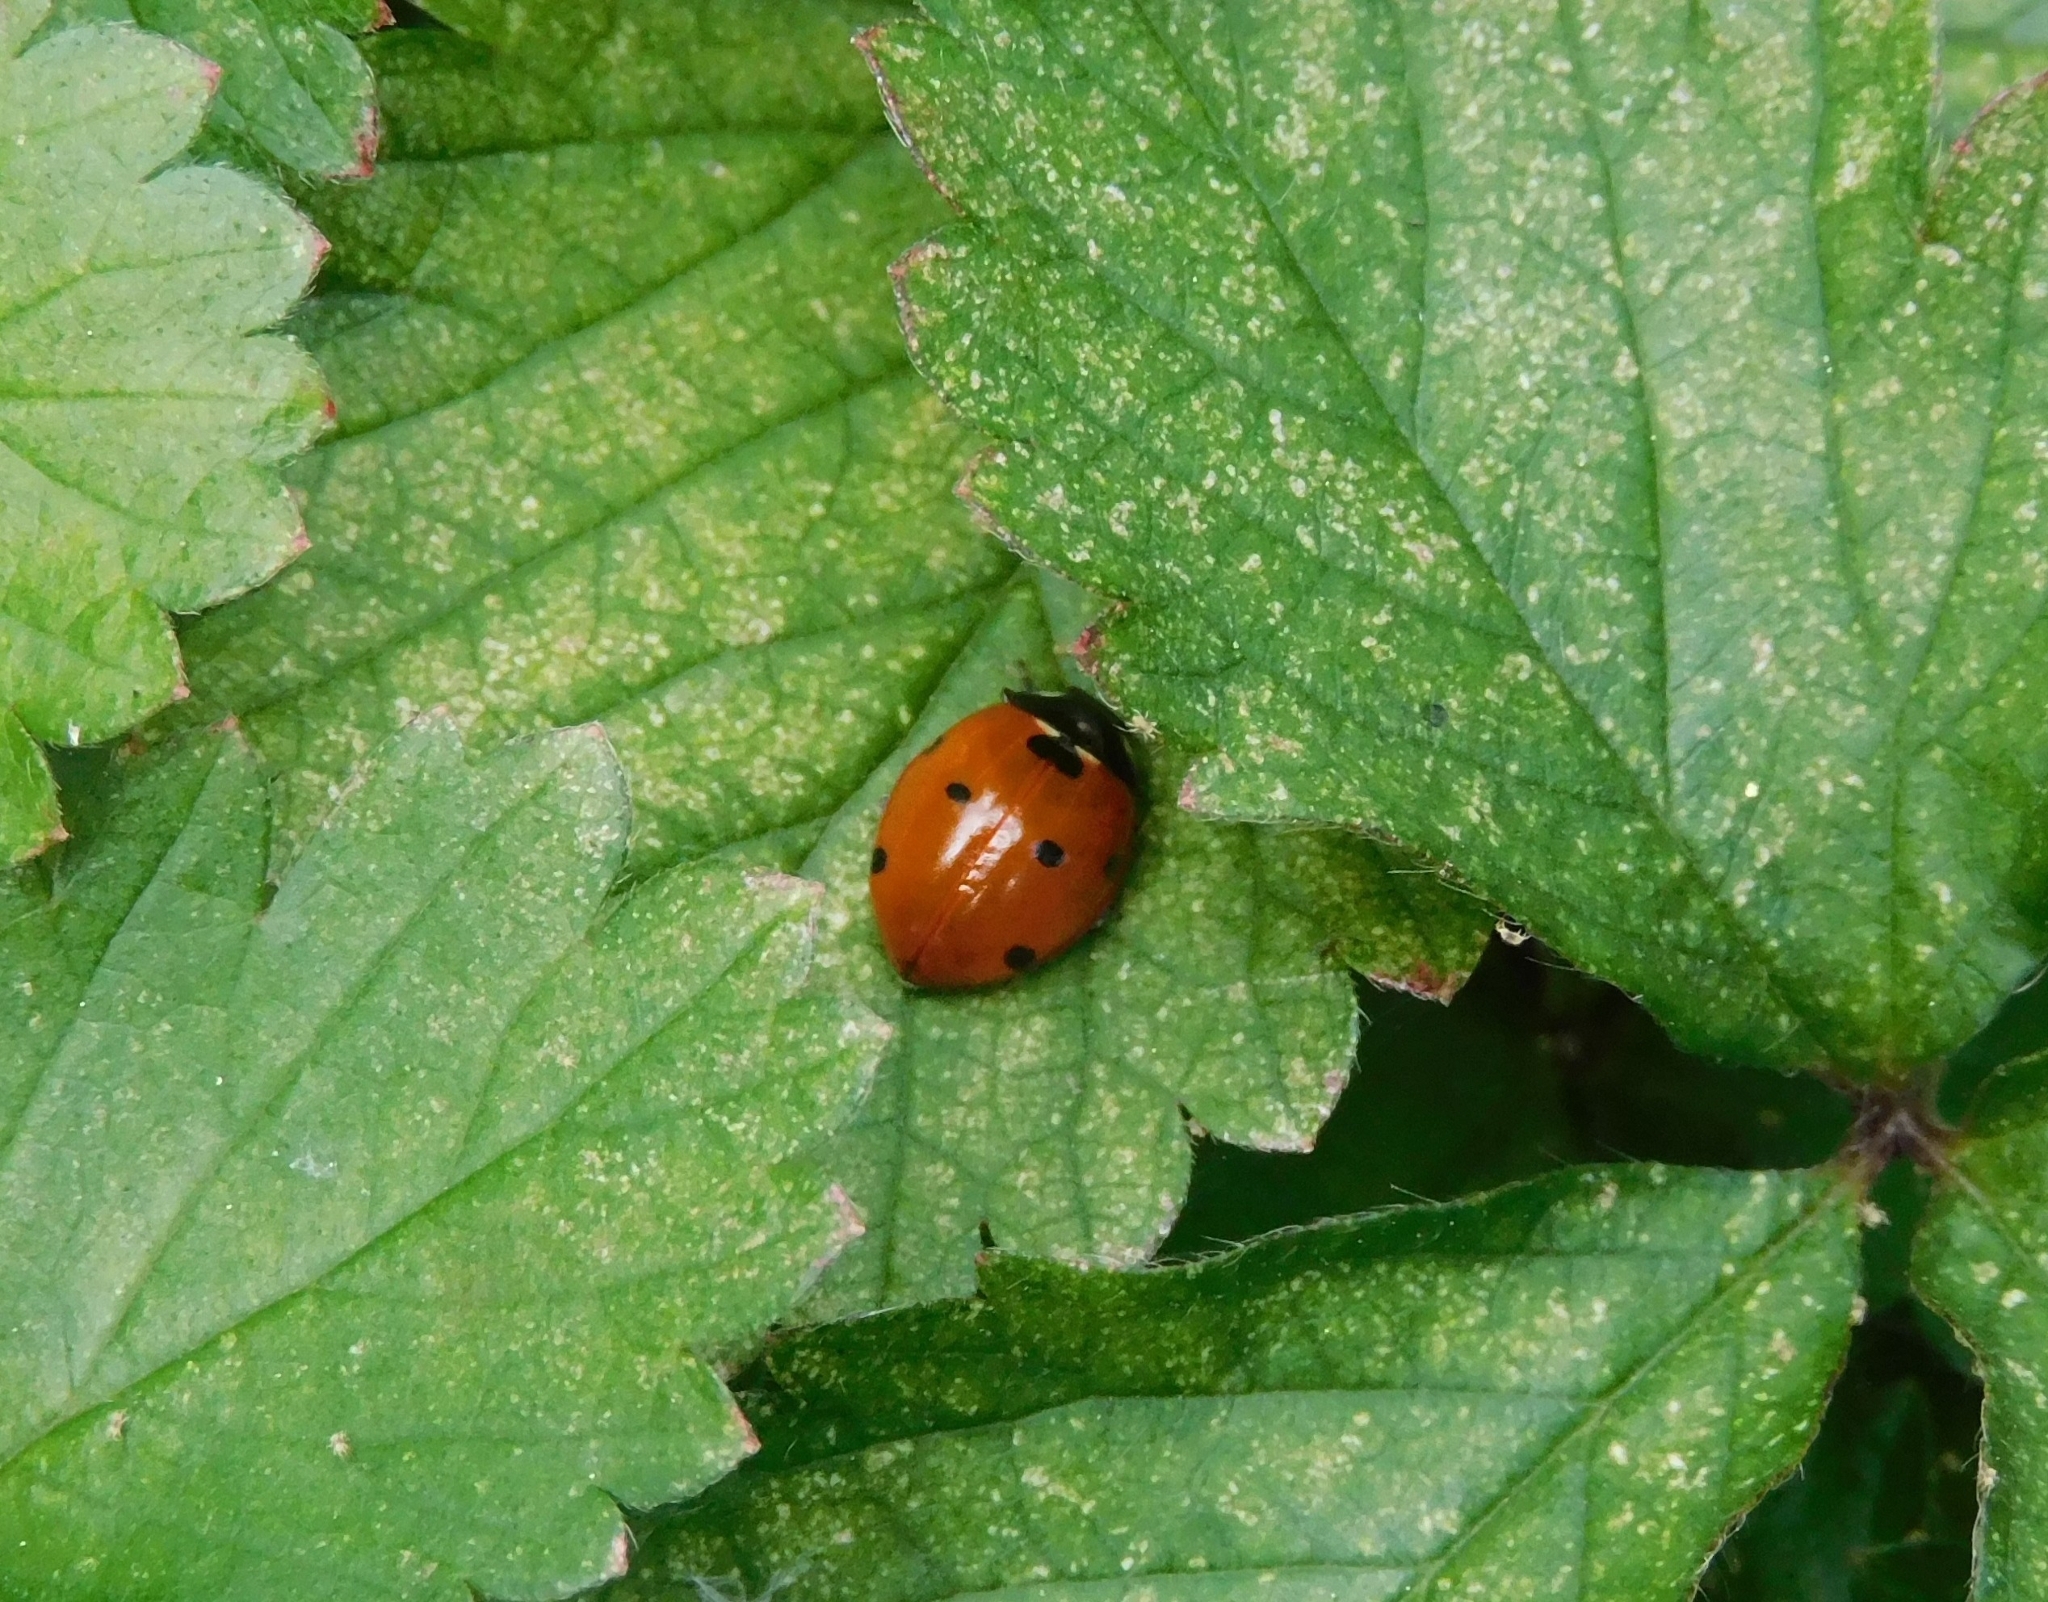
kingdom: Animalia
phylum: Arthropoda
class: Insecta
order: Coleoptera
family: Coccinellidae
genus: Coccinella
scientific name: Coccinella septempunctata
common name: Sevenspotted lady beetle
